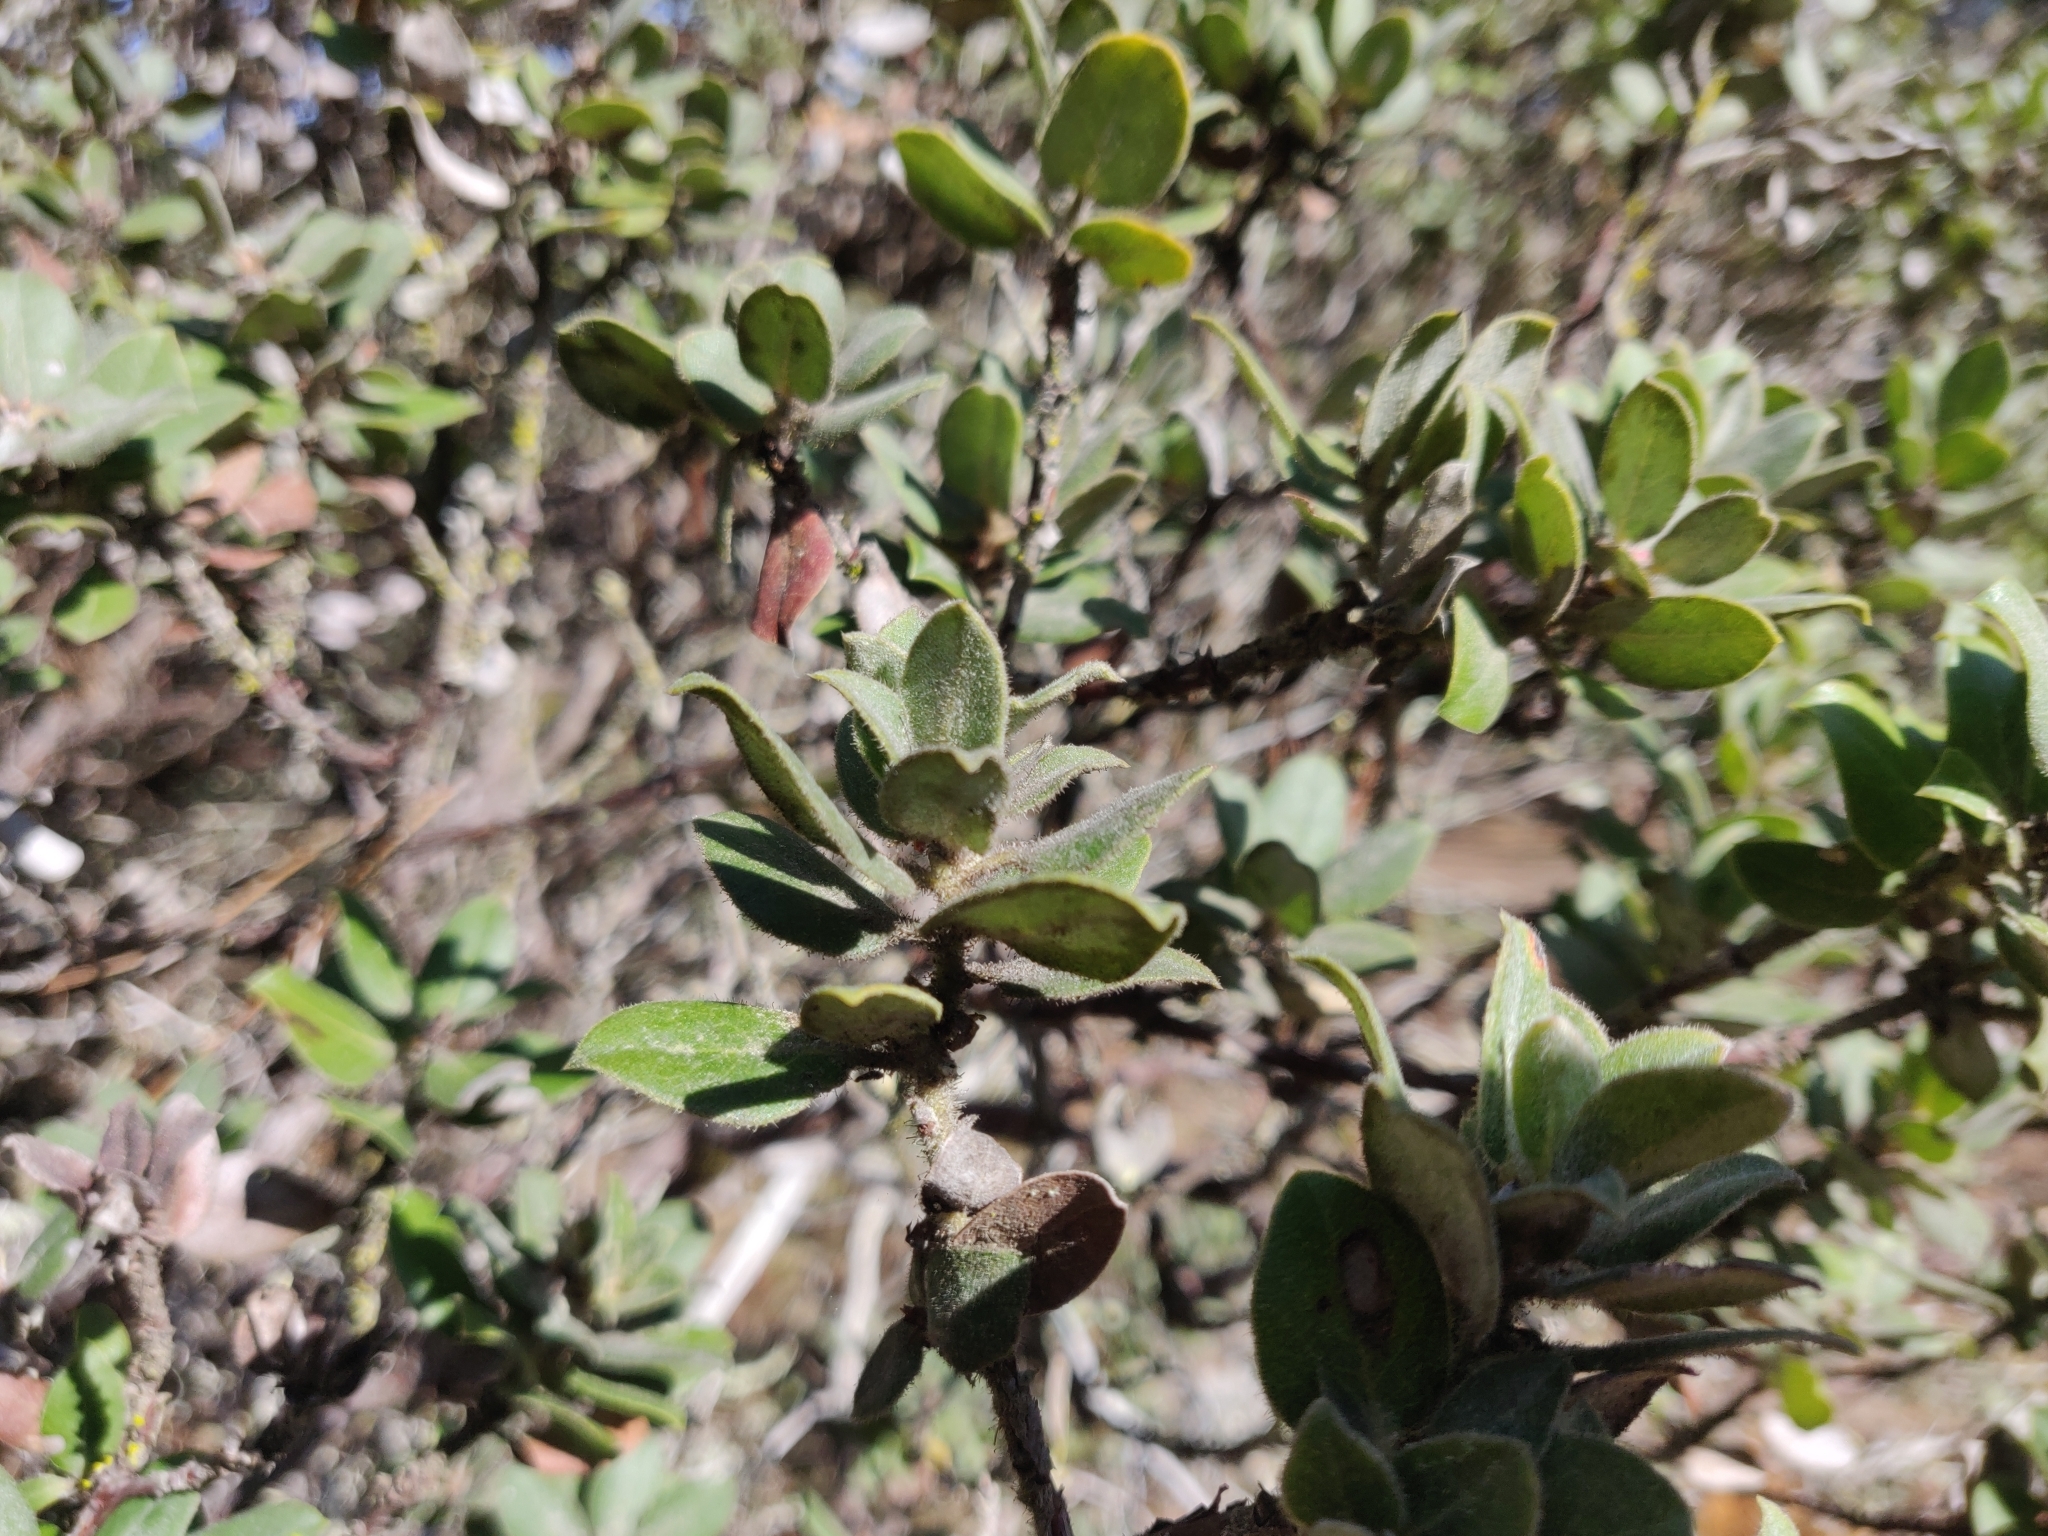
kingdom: Plantae
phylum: Tracheophyta
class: Magnoliopsida
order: Ericales
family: Ericaceae
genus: Arctostaphylos
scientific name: Arctostaphylos tomentosa
